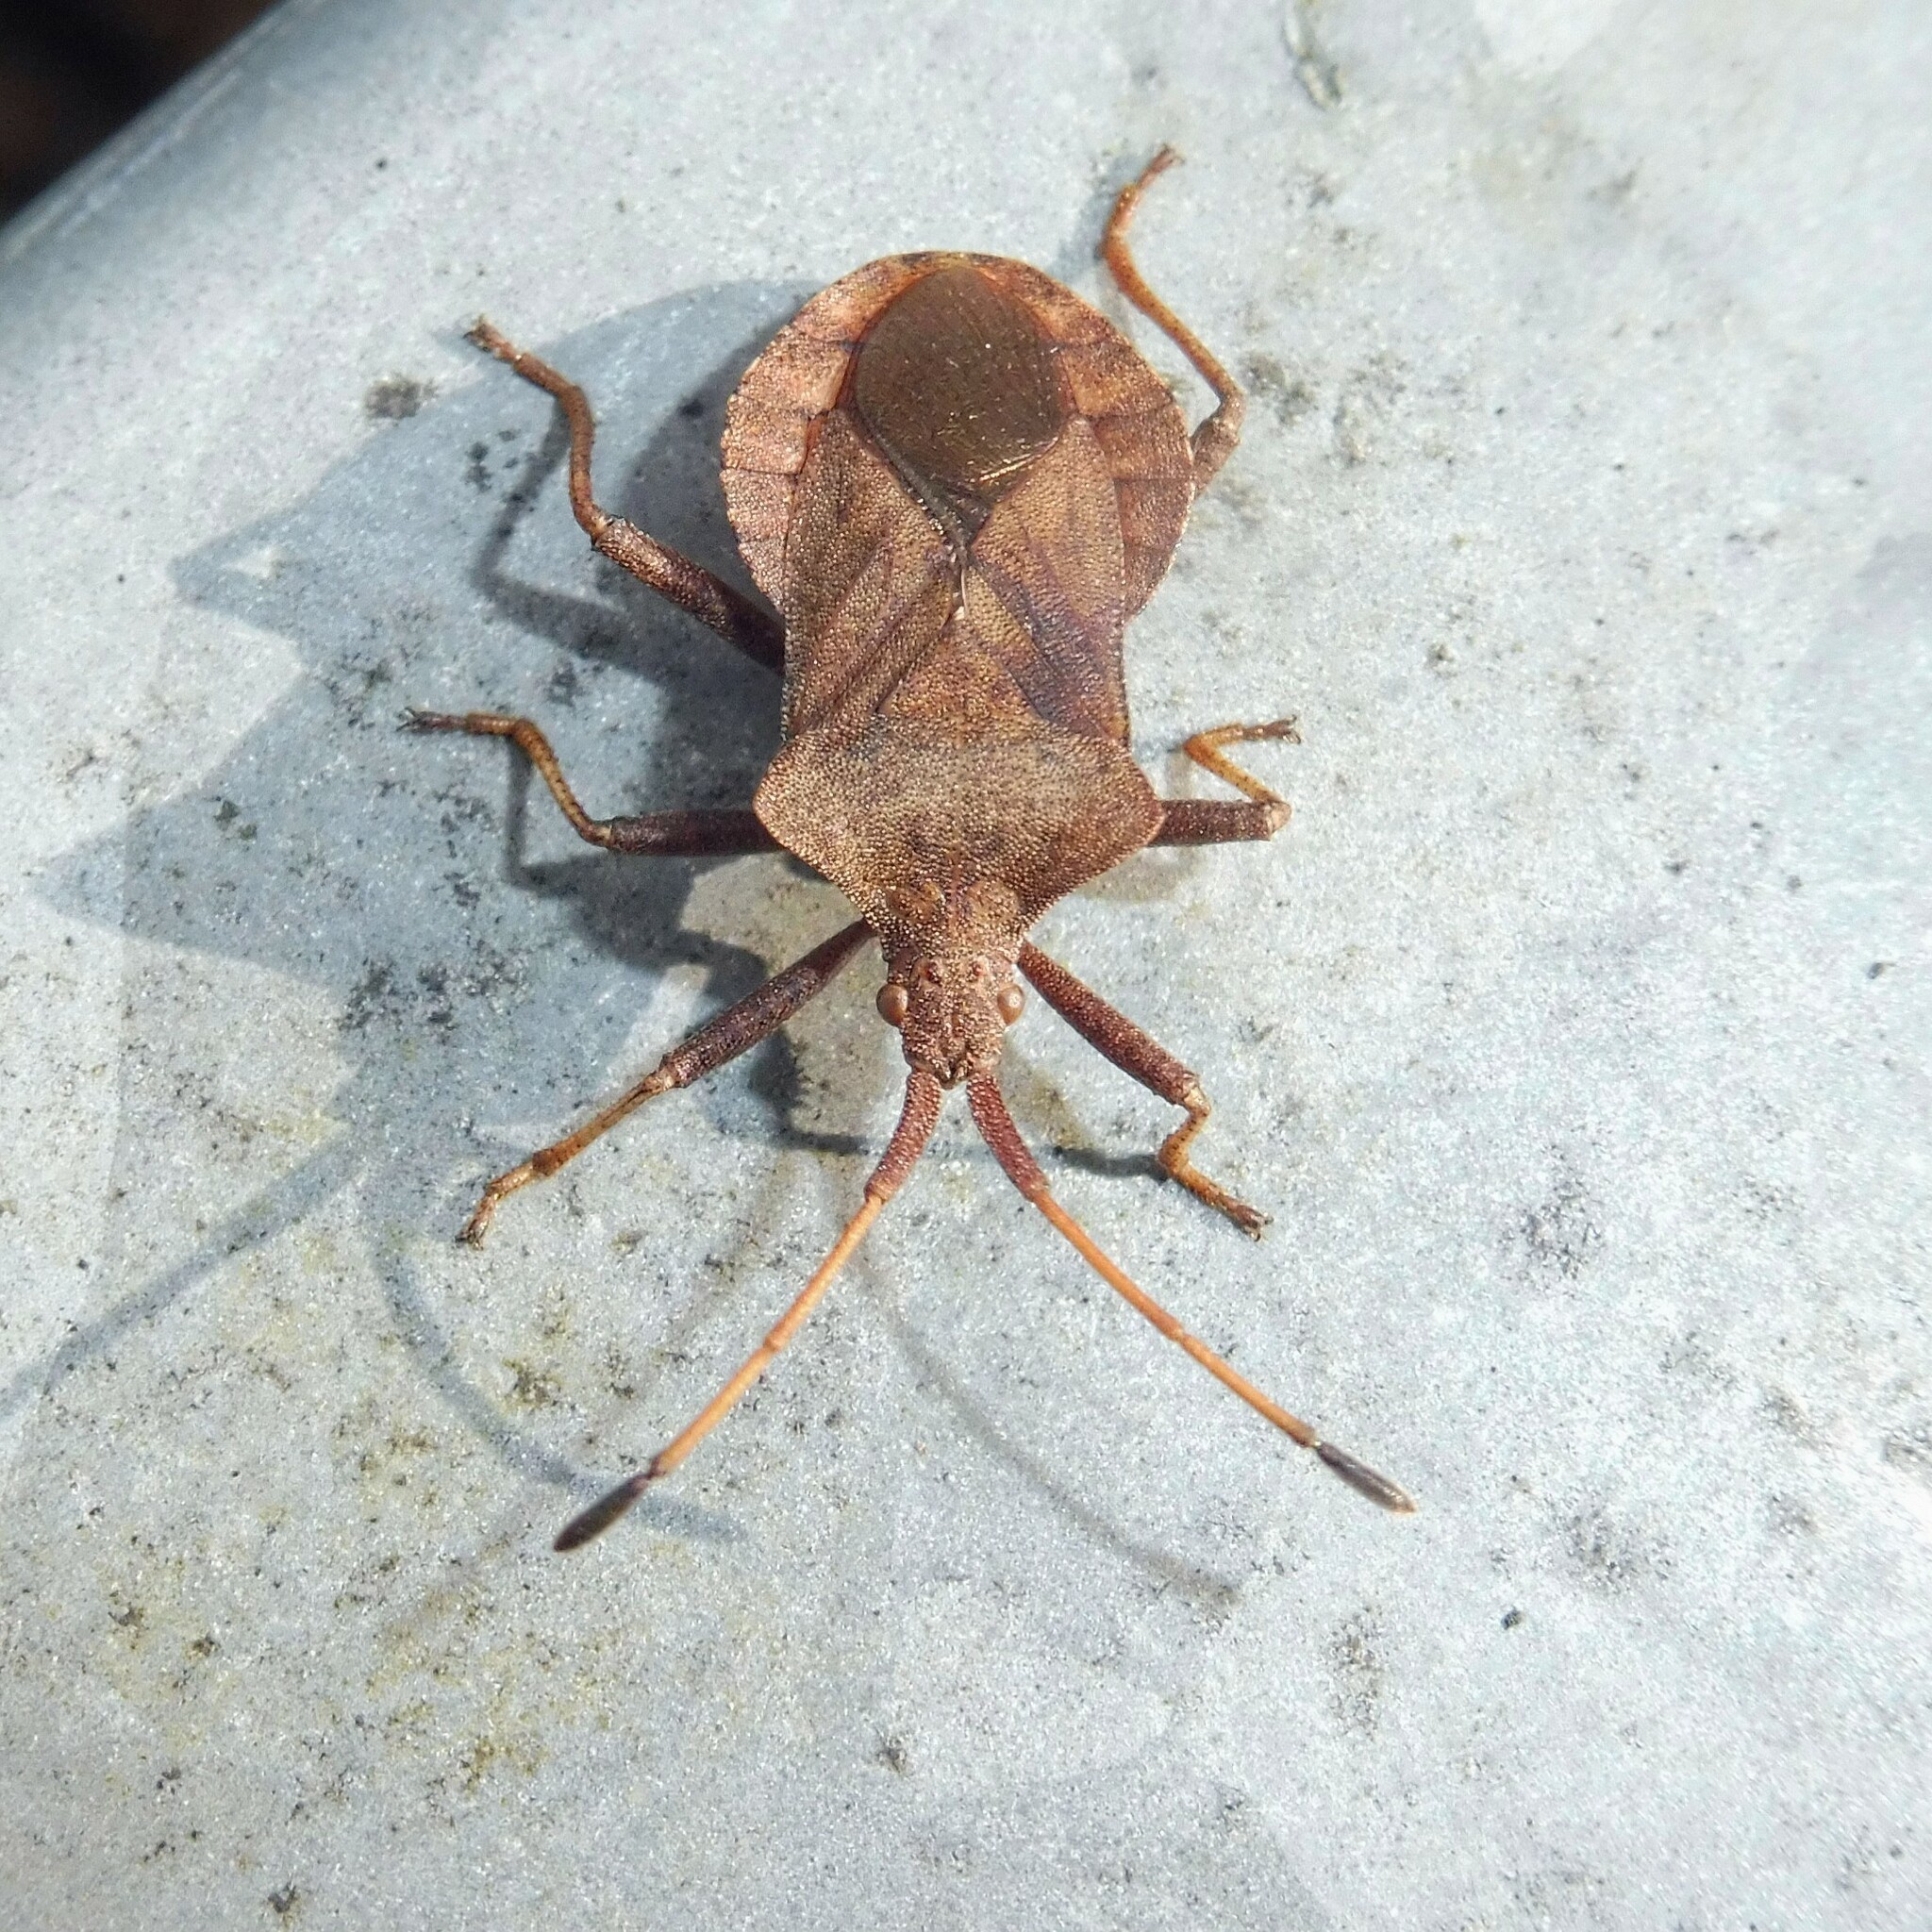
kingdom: Animalia
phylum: Arthropoda
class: Insecta
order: Hemiptera
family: Coreidae
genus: Coreus
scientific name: Coreus marginatus
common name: Dock bug
